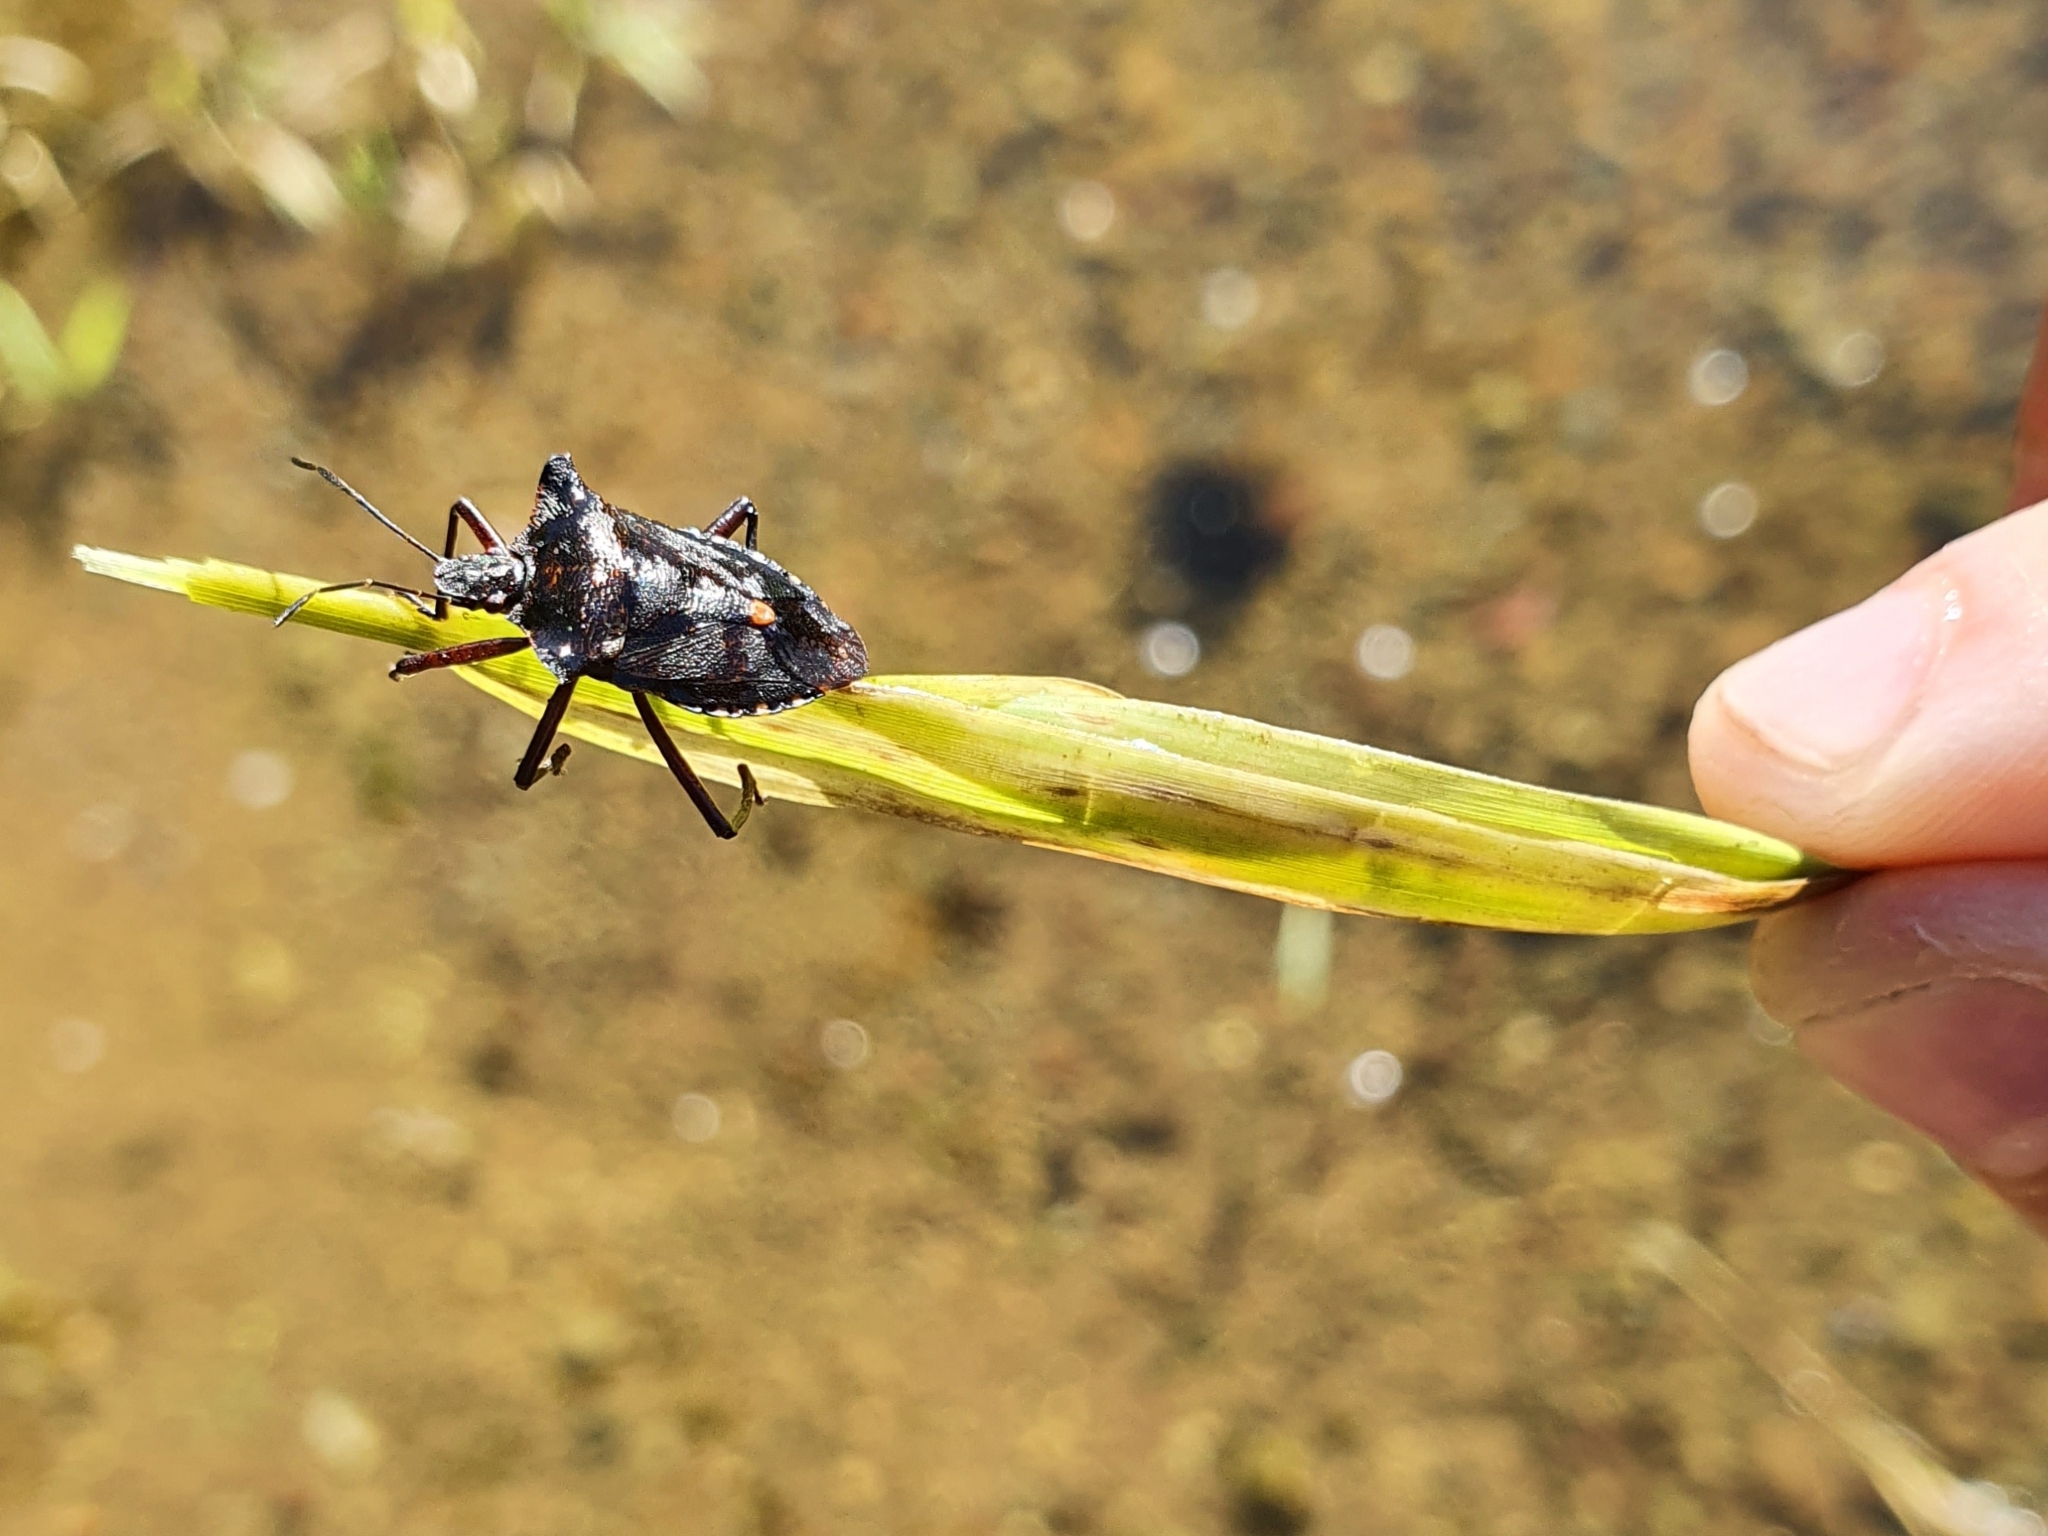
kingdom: Animalia
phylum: Arthropoda
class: Insecta
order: Hemiptera
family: Pentatomidae
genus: Pentatoma
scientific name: Pentatoma rufipes
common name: Forest bug
